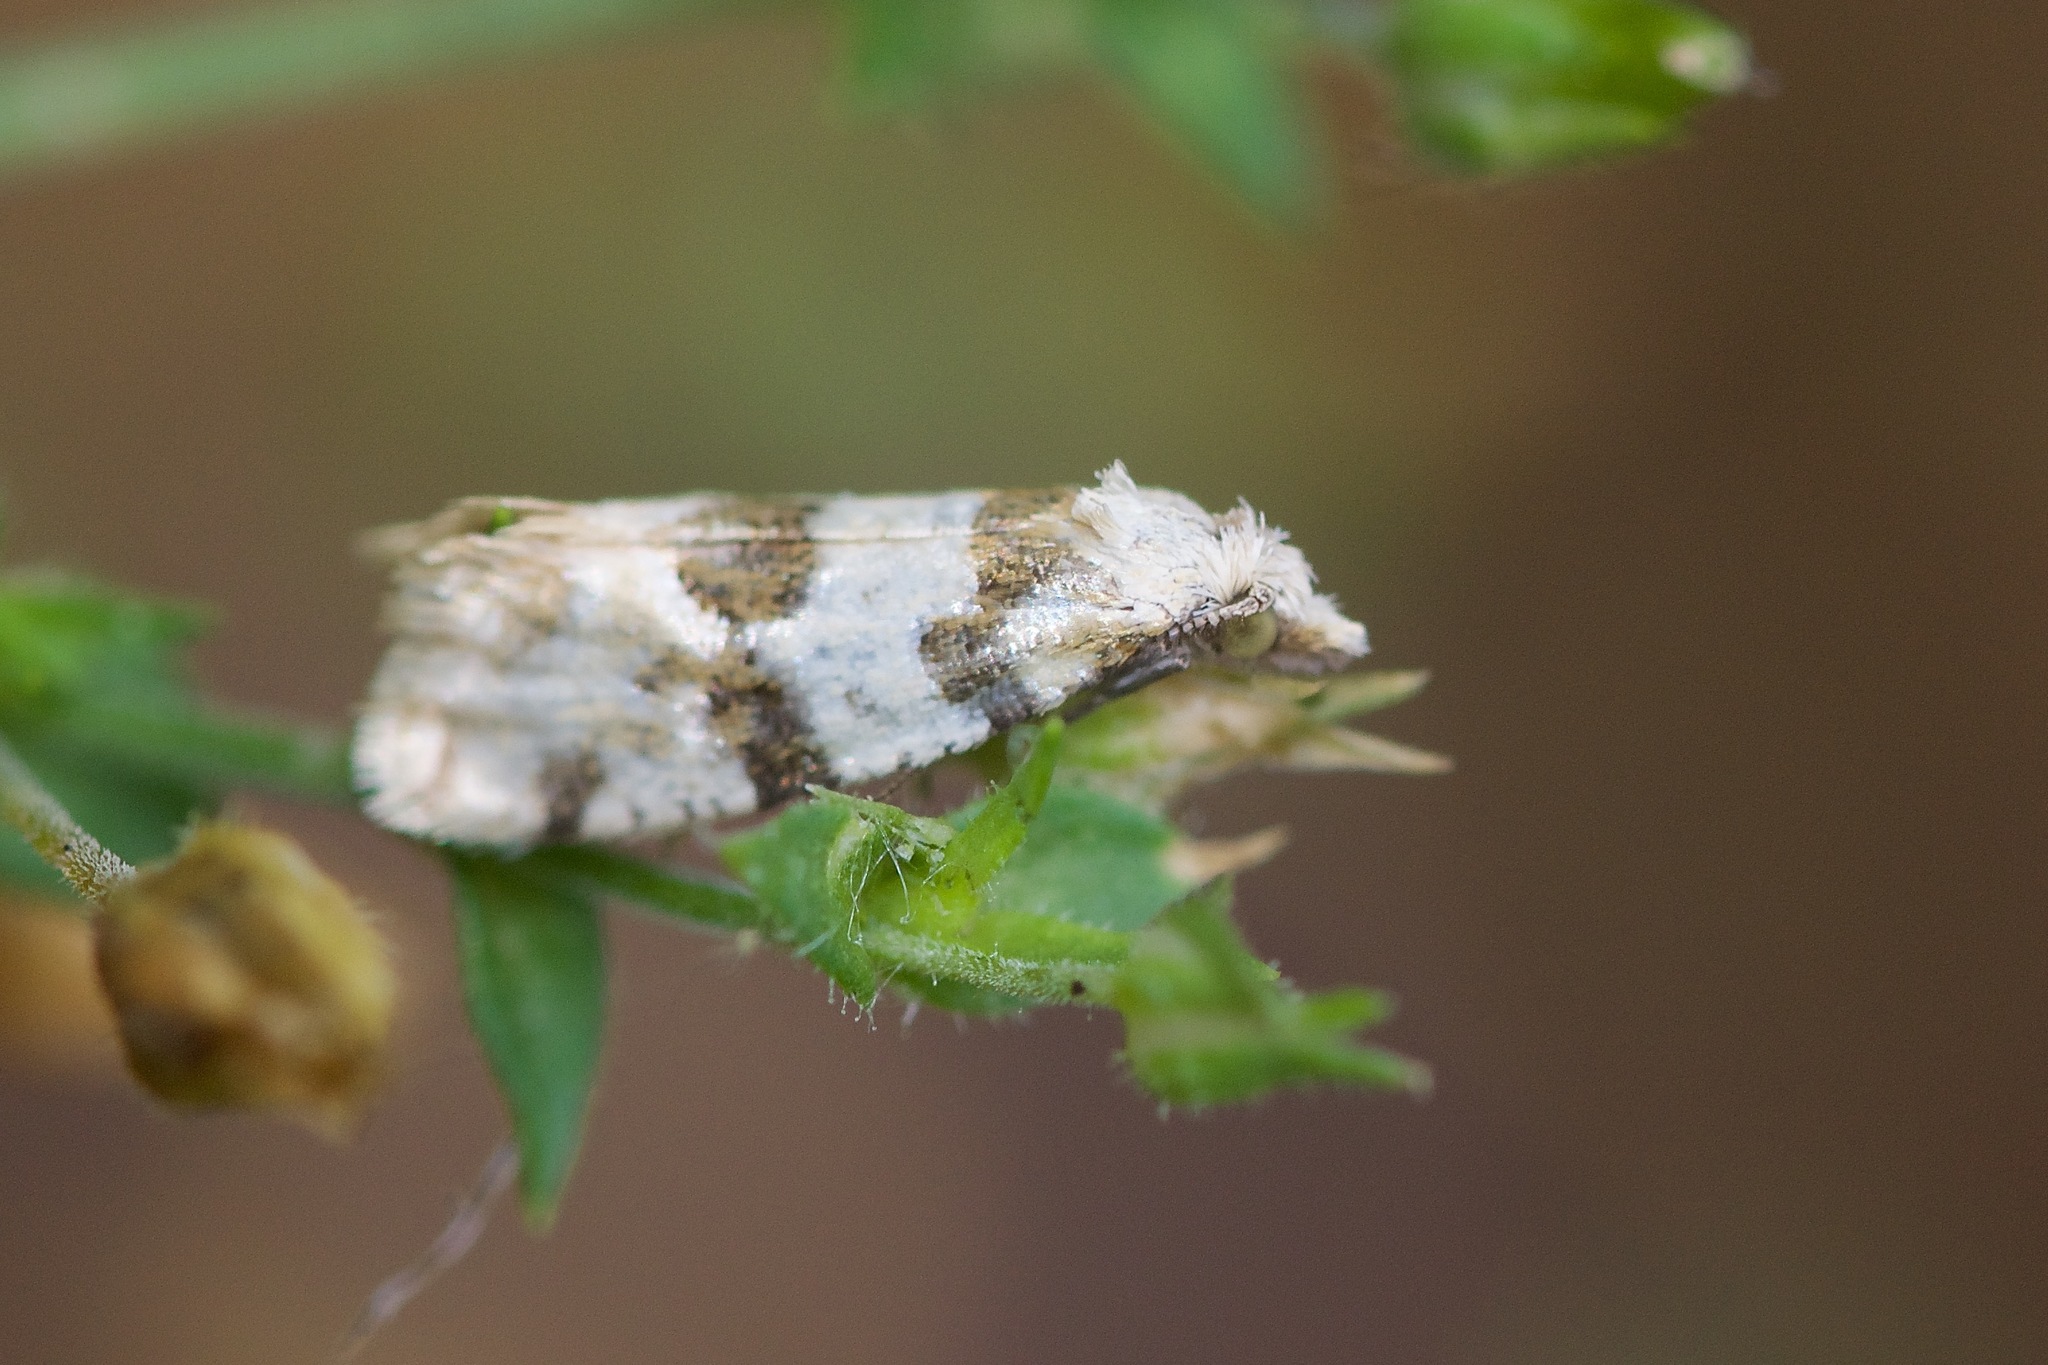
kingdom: Animalia
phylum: Arthropoda
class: Insecta
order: Lepidoptera
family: Tortricidae
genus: Aethes
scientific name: Aethes argentilimitana
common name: Silver-bordered aethes
